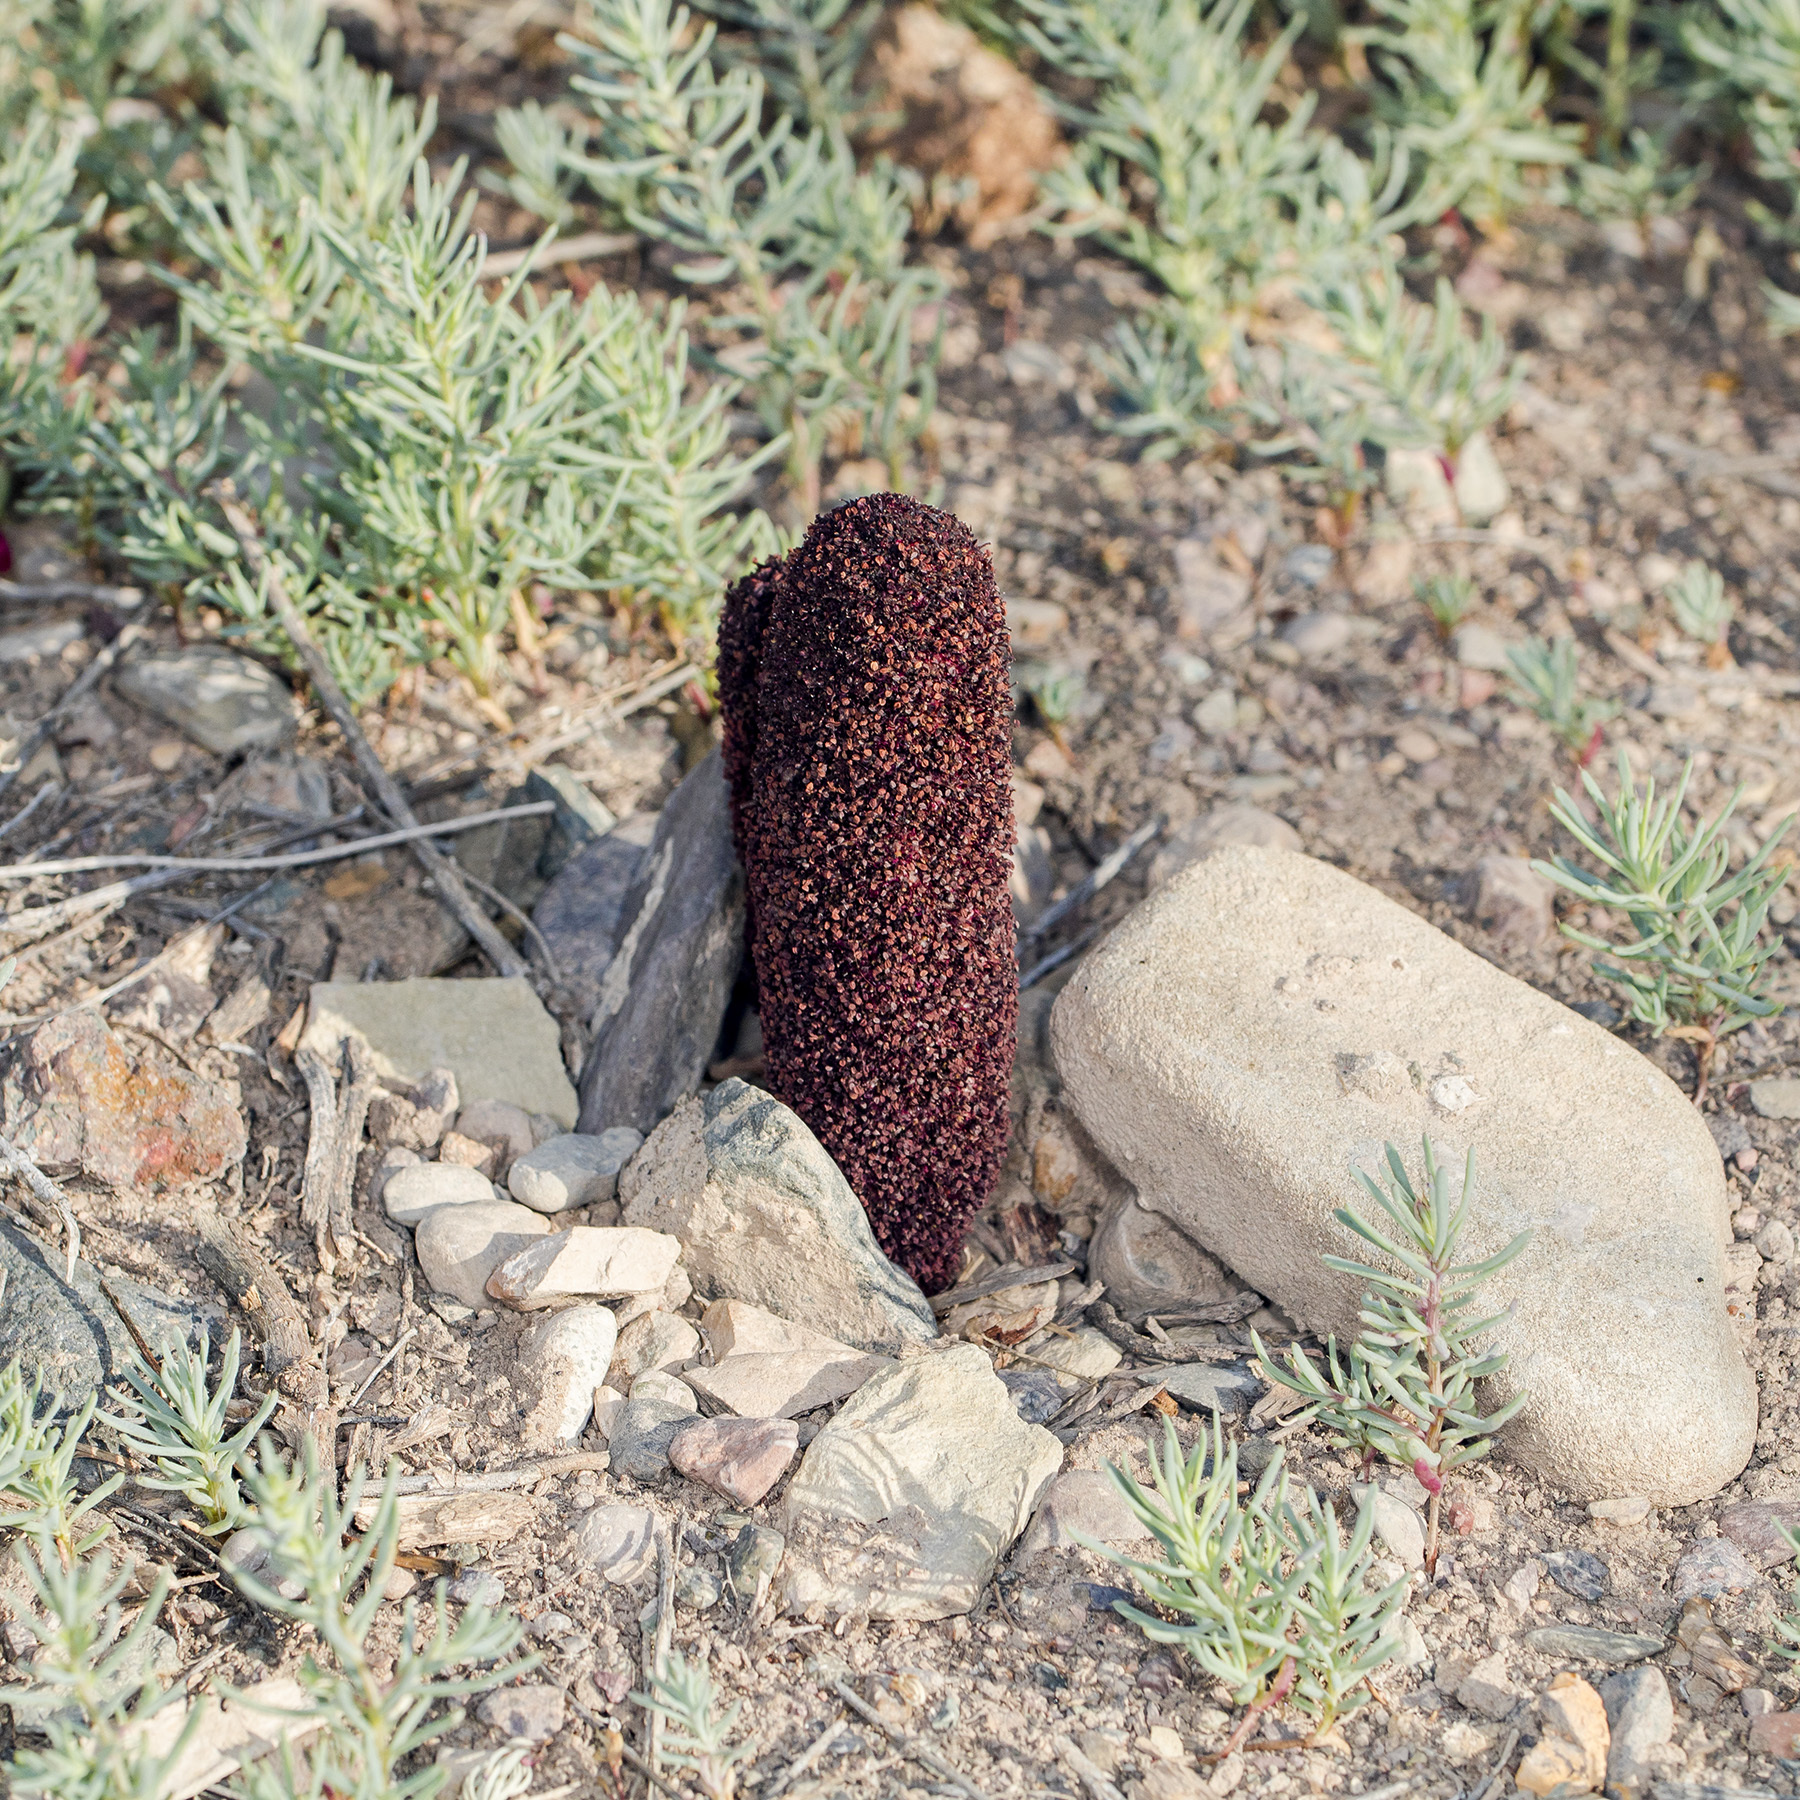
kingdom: Plantae
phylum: Tracheophyta
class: Magnoliopsida
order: Saxifragales
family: Cynomoriaceae
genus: Cynomorium
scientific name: Cynomorium coccineum
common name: Maltese-mushroom
